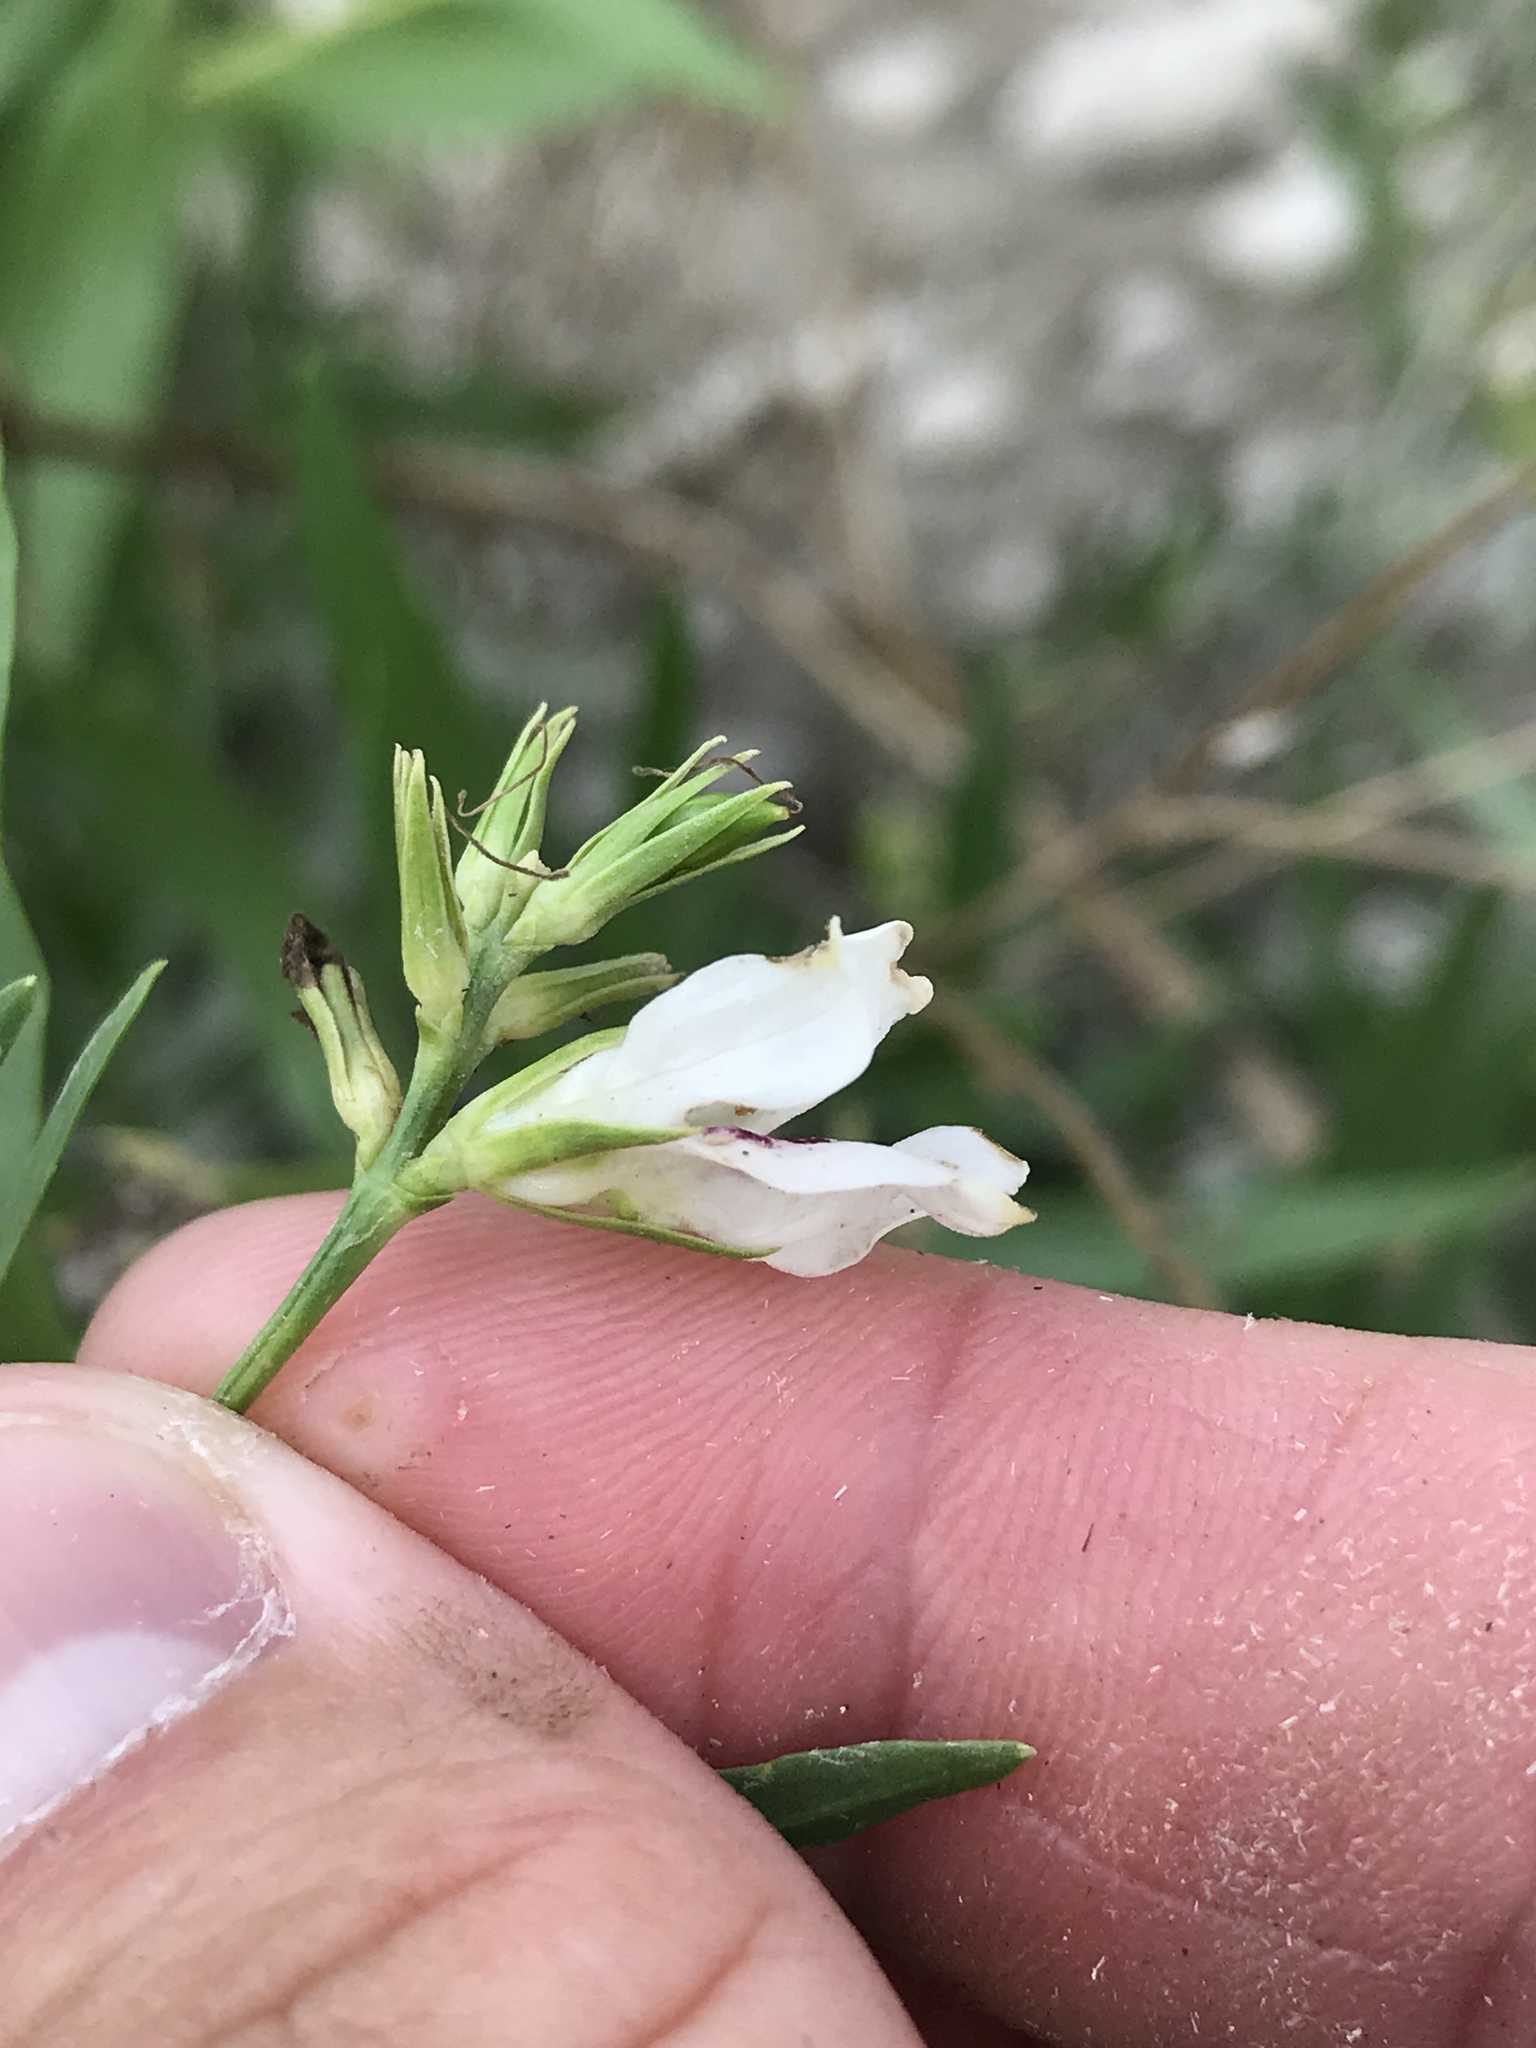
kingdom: Plantae
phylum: Tracheophyta
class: Magnoliopsida
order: Lamiales
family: Acanthaceae
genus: Dianthera
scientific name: Dianthera americana
